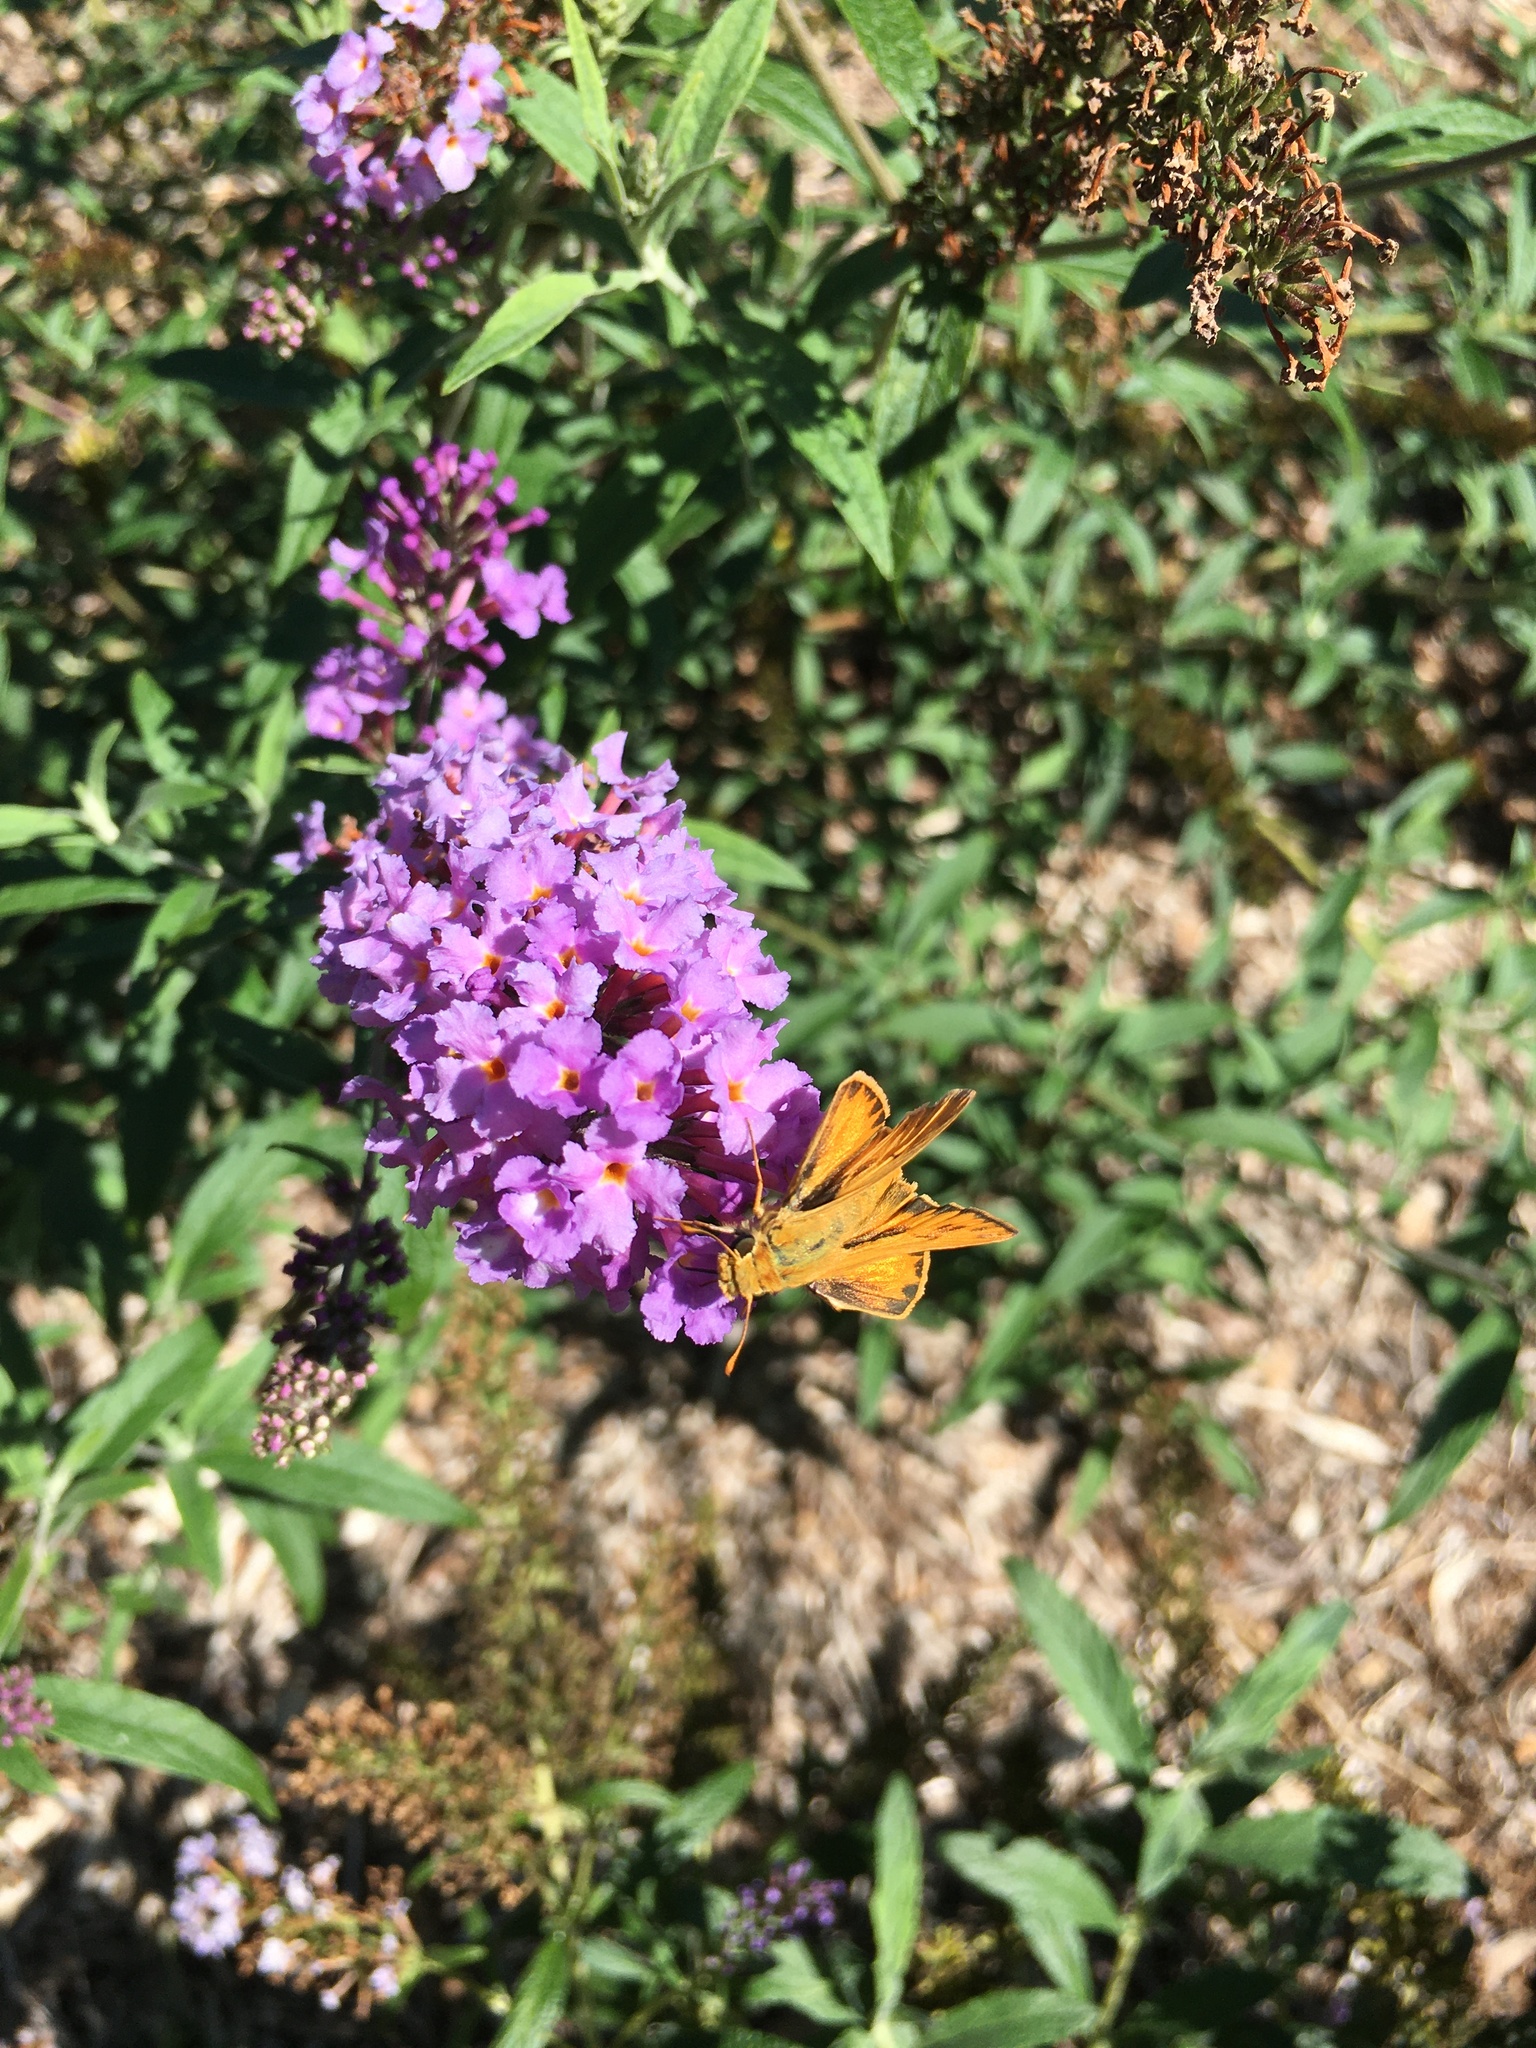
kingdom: Animalia
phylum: Arthropoda
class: Insecta
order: Lepidoptera
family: Hesperiidae
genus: Hylephila
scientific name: Hylephila phyleus
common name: Fiery skipper
